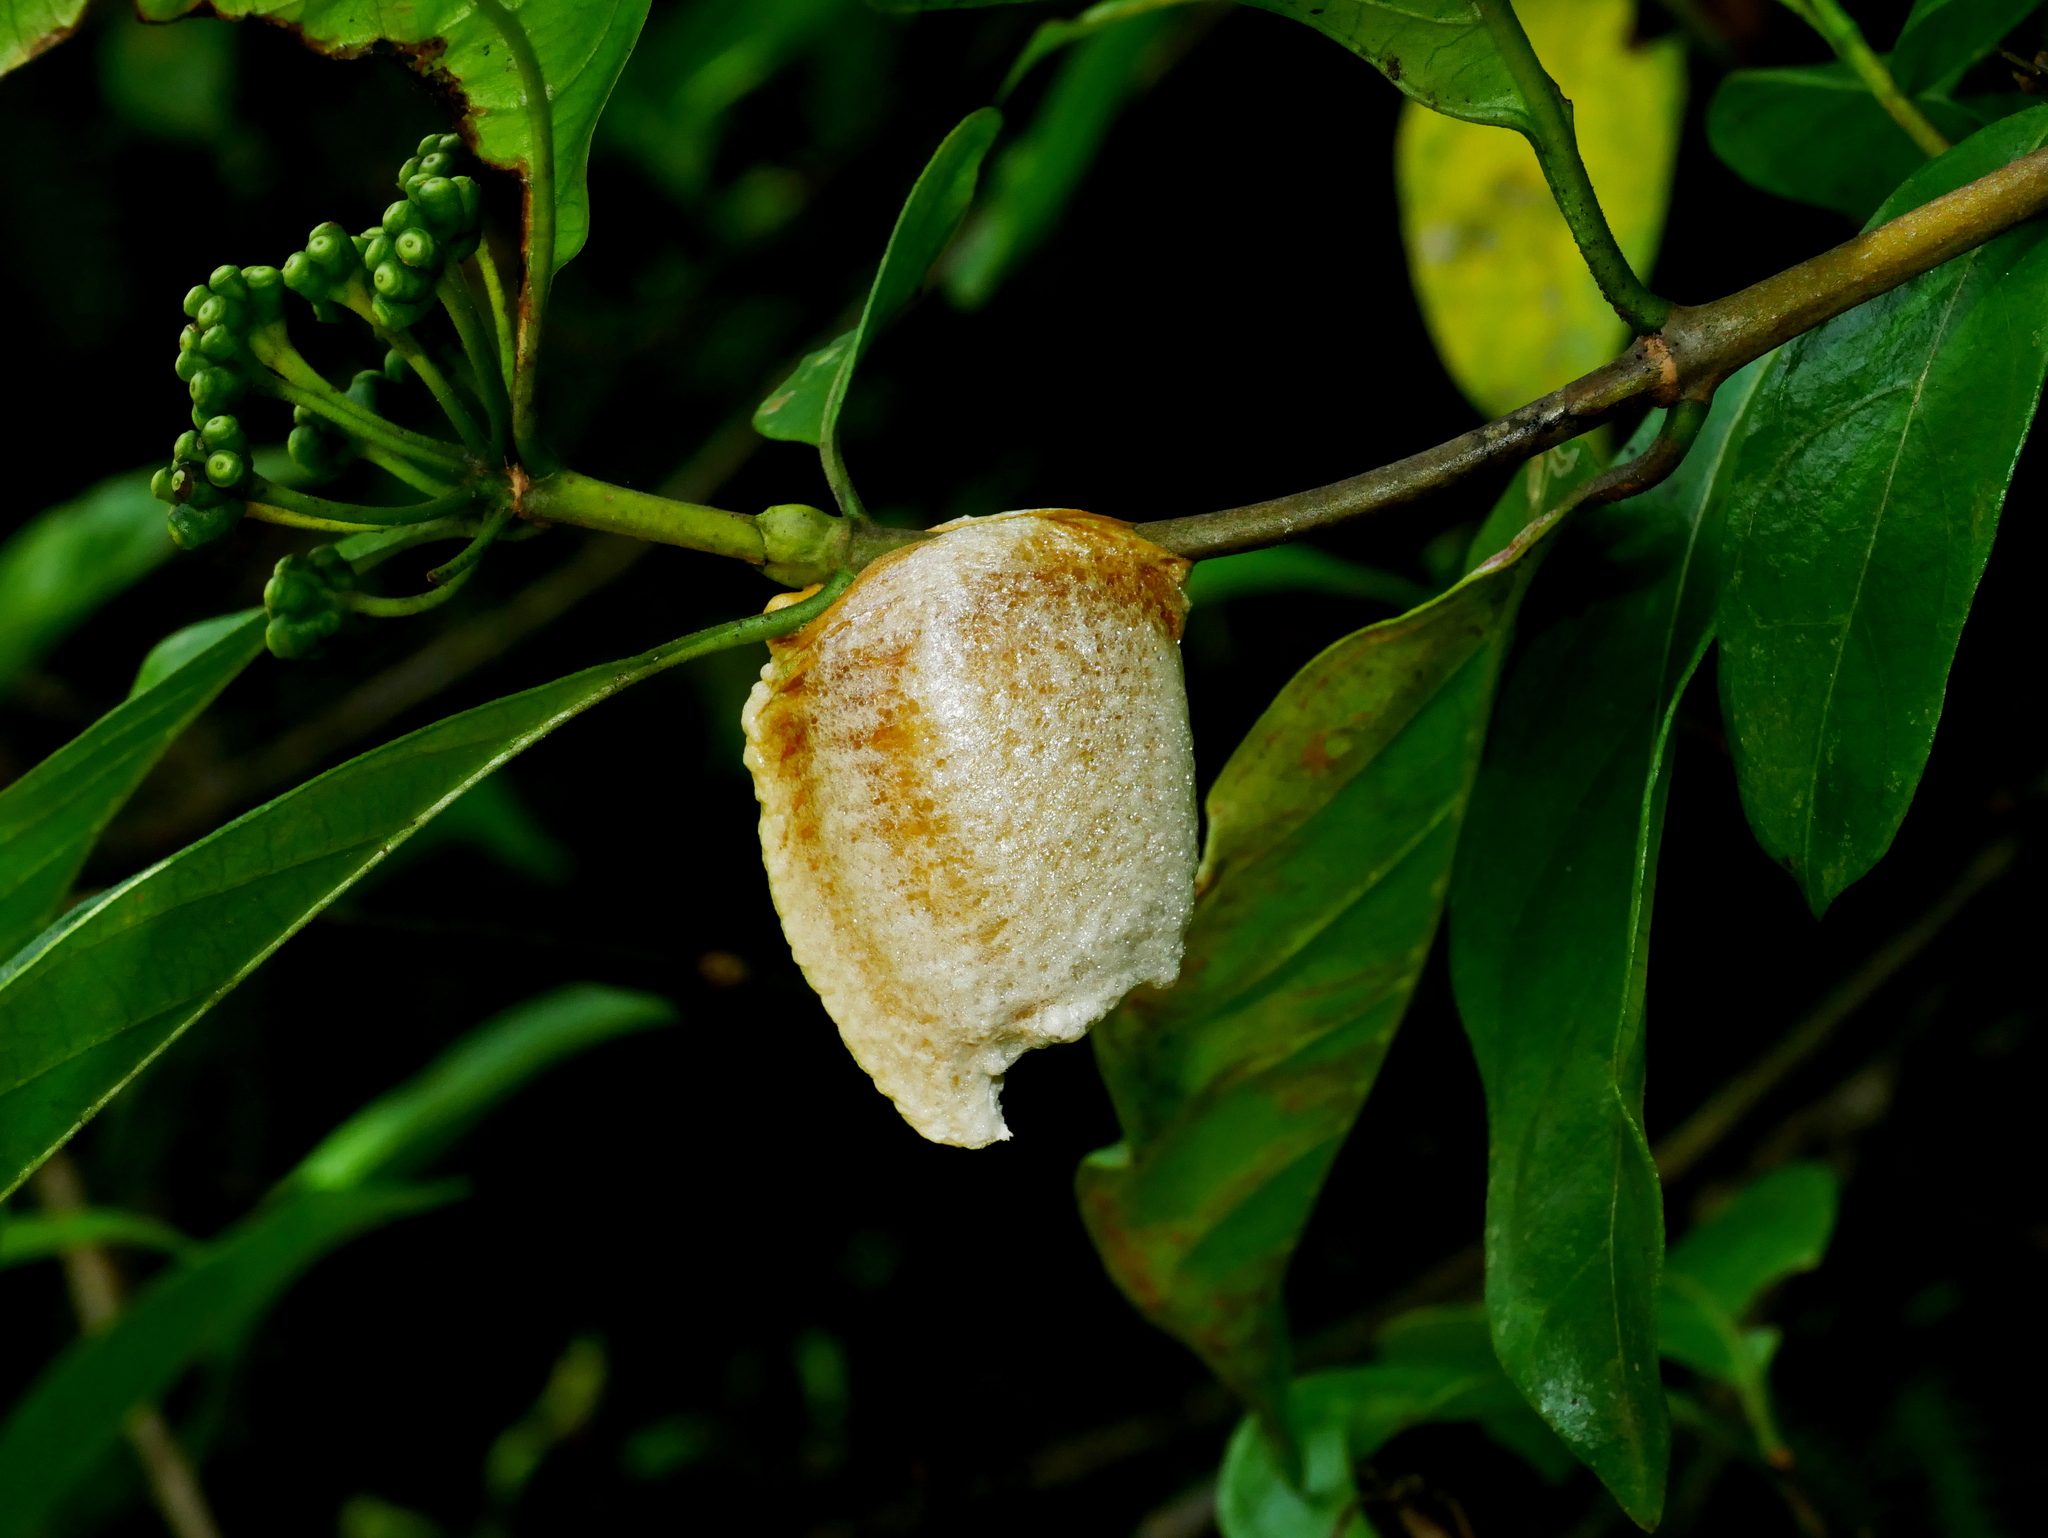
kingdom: Animalia
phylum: Arthropoda
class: Insecta
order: Mantodea
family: Mantidae
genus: Titanodula
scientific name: Titanodula formosana
